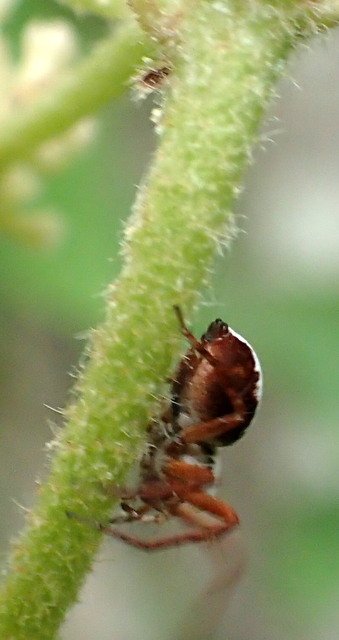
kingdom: Animalia
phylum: Arthropoda
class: Arachnida
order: Araneae
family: Oxyopidae
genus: Hamataliwa
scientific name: Hamataliwa helia
